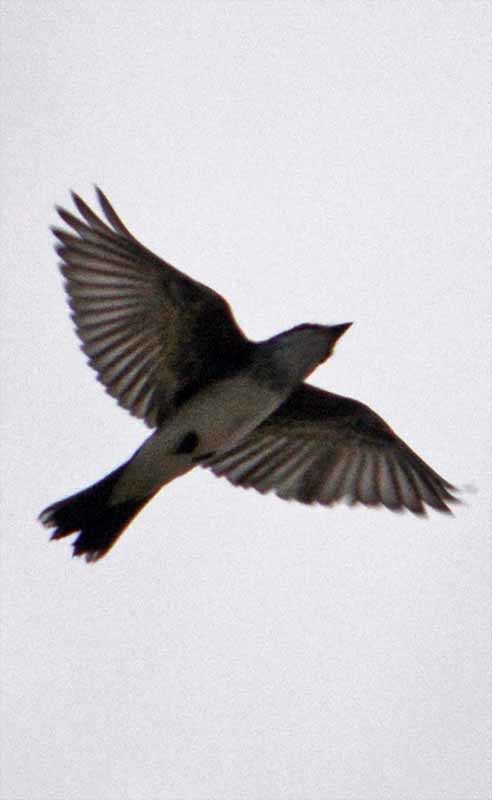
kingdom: Animalia
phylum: Chordata
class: Aves
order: Passeriformes
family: Tyrannidae
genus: Tyrannus
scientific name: Tyrannus tyrannus
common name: Eastern kingbird
